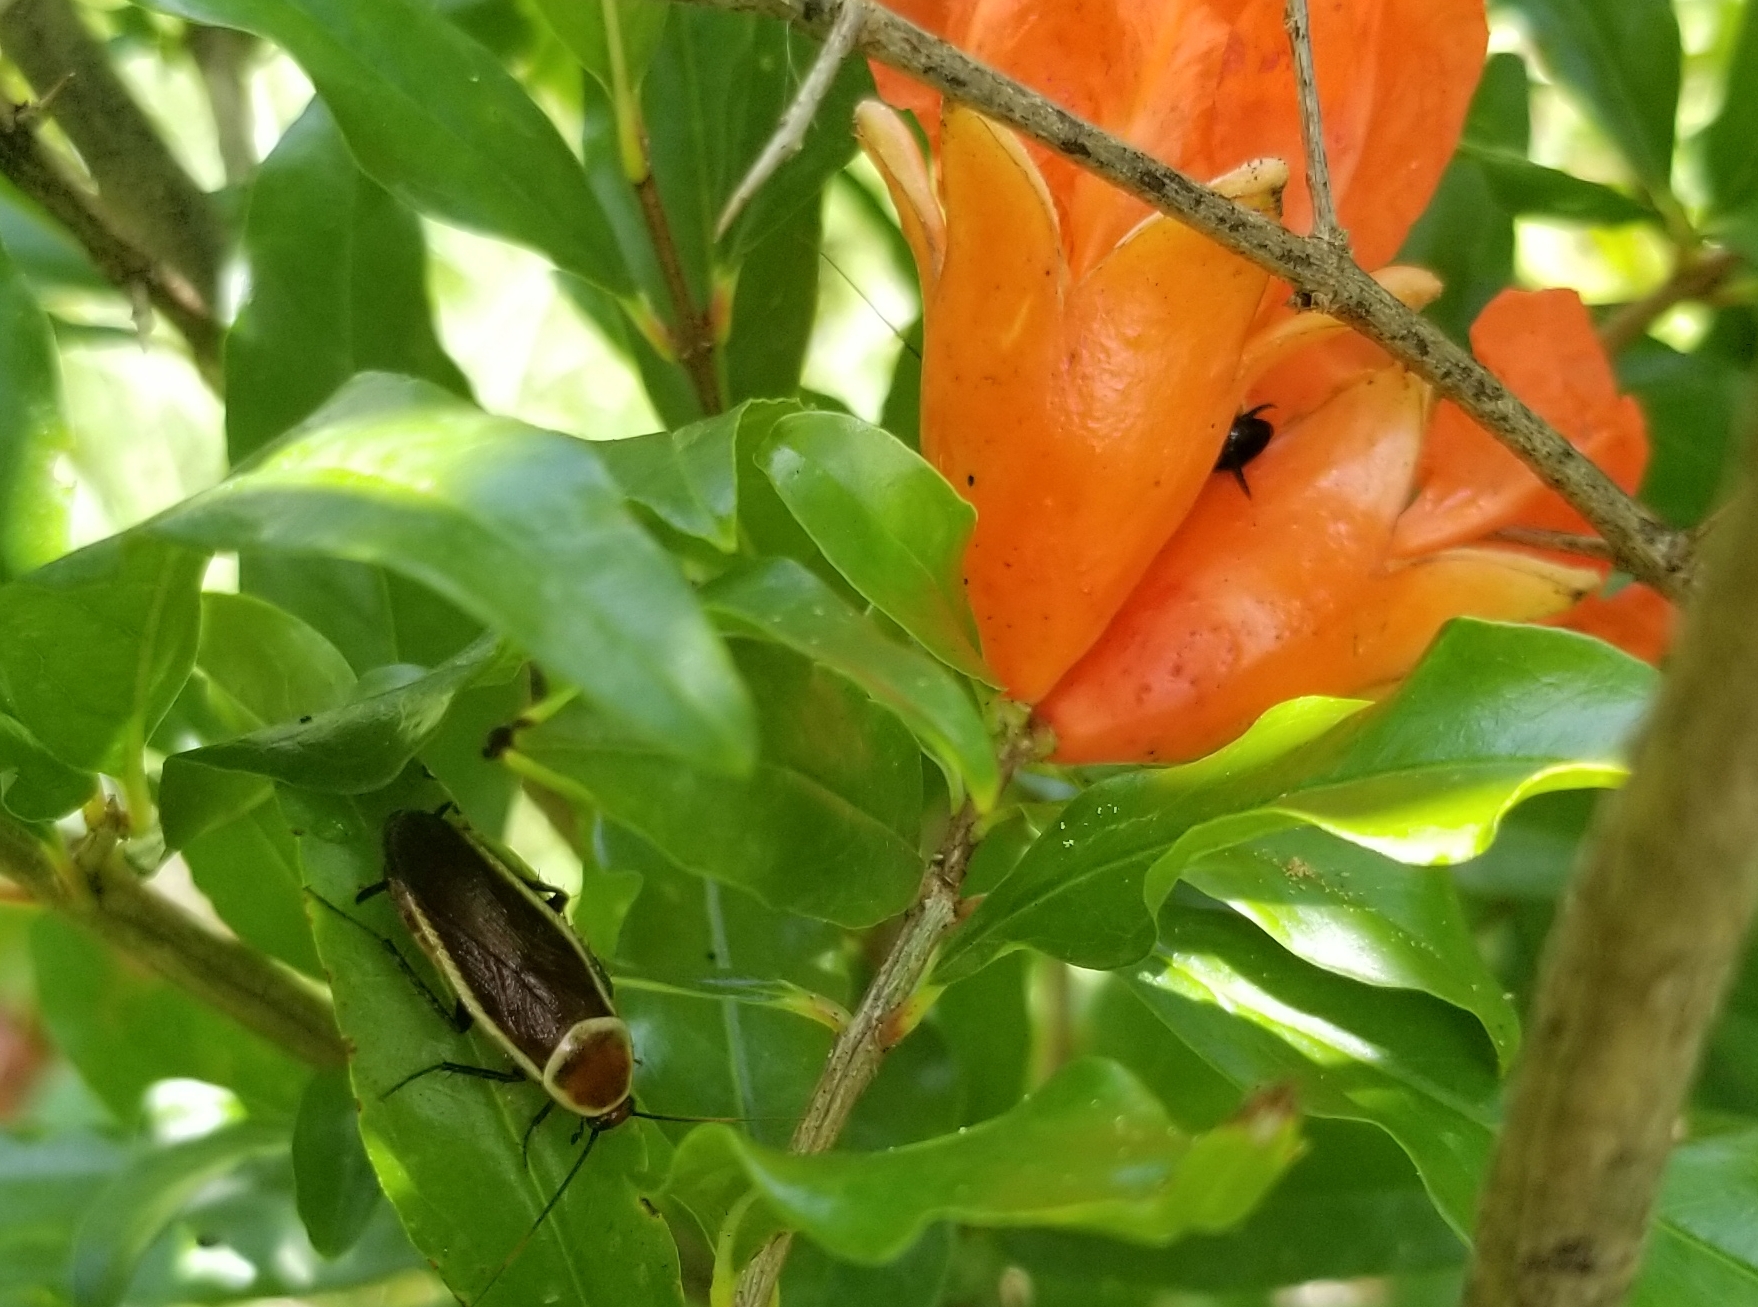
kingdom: Animalia
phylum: Arthropoda
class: Insecta
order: Blattodea
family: Ectobiidae
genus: Pseudomops
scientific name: Pseudomops septentrionalis
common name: Pale-bordered field cockroach
